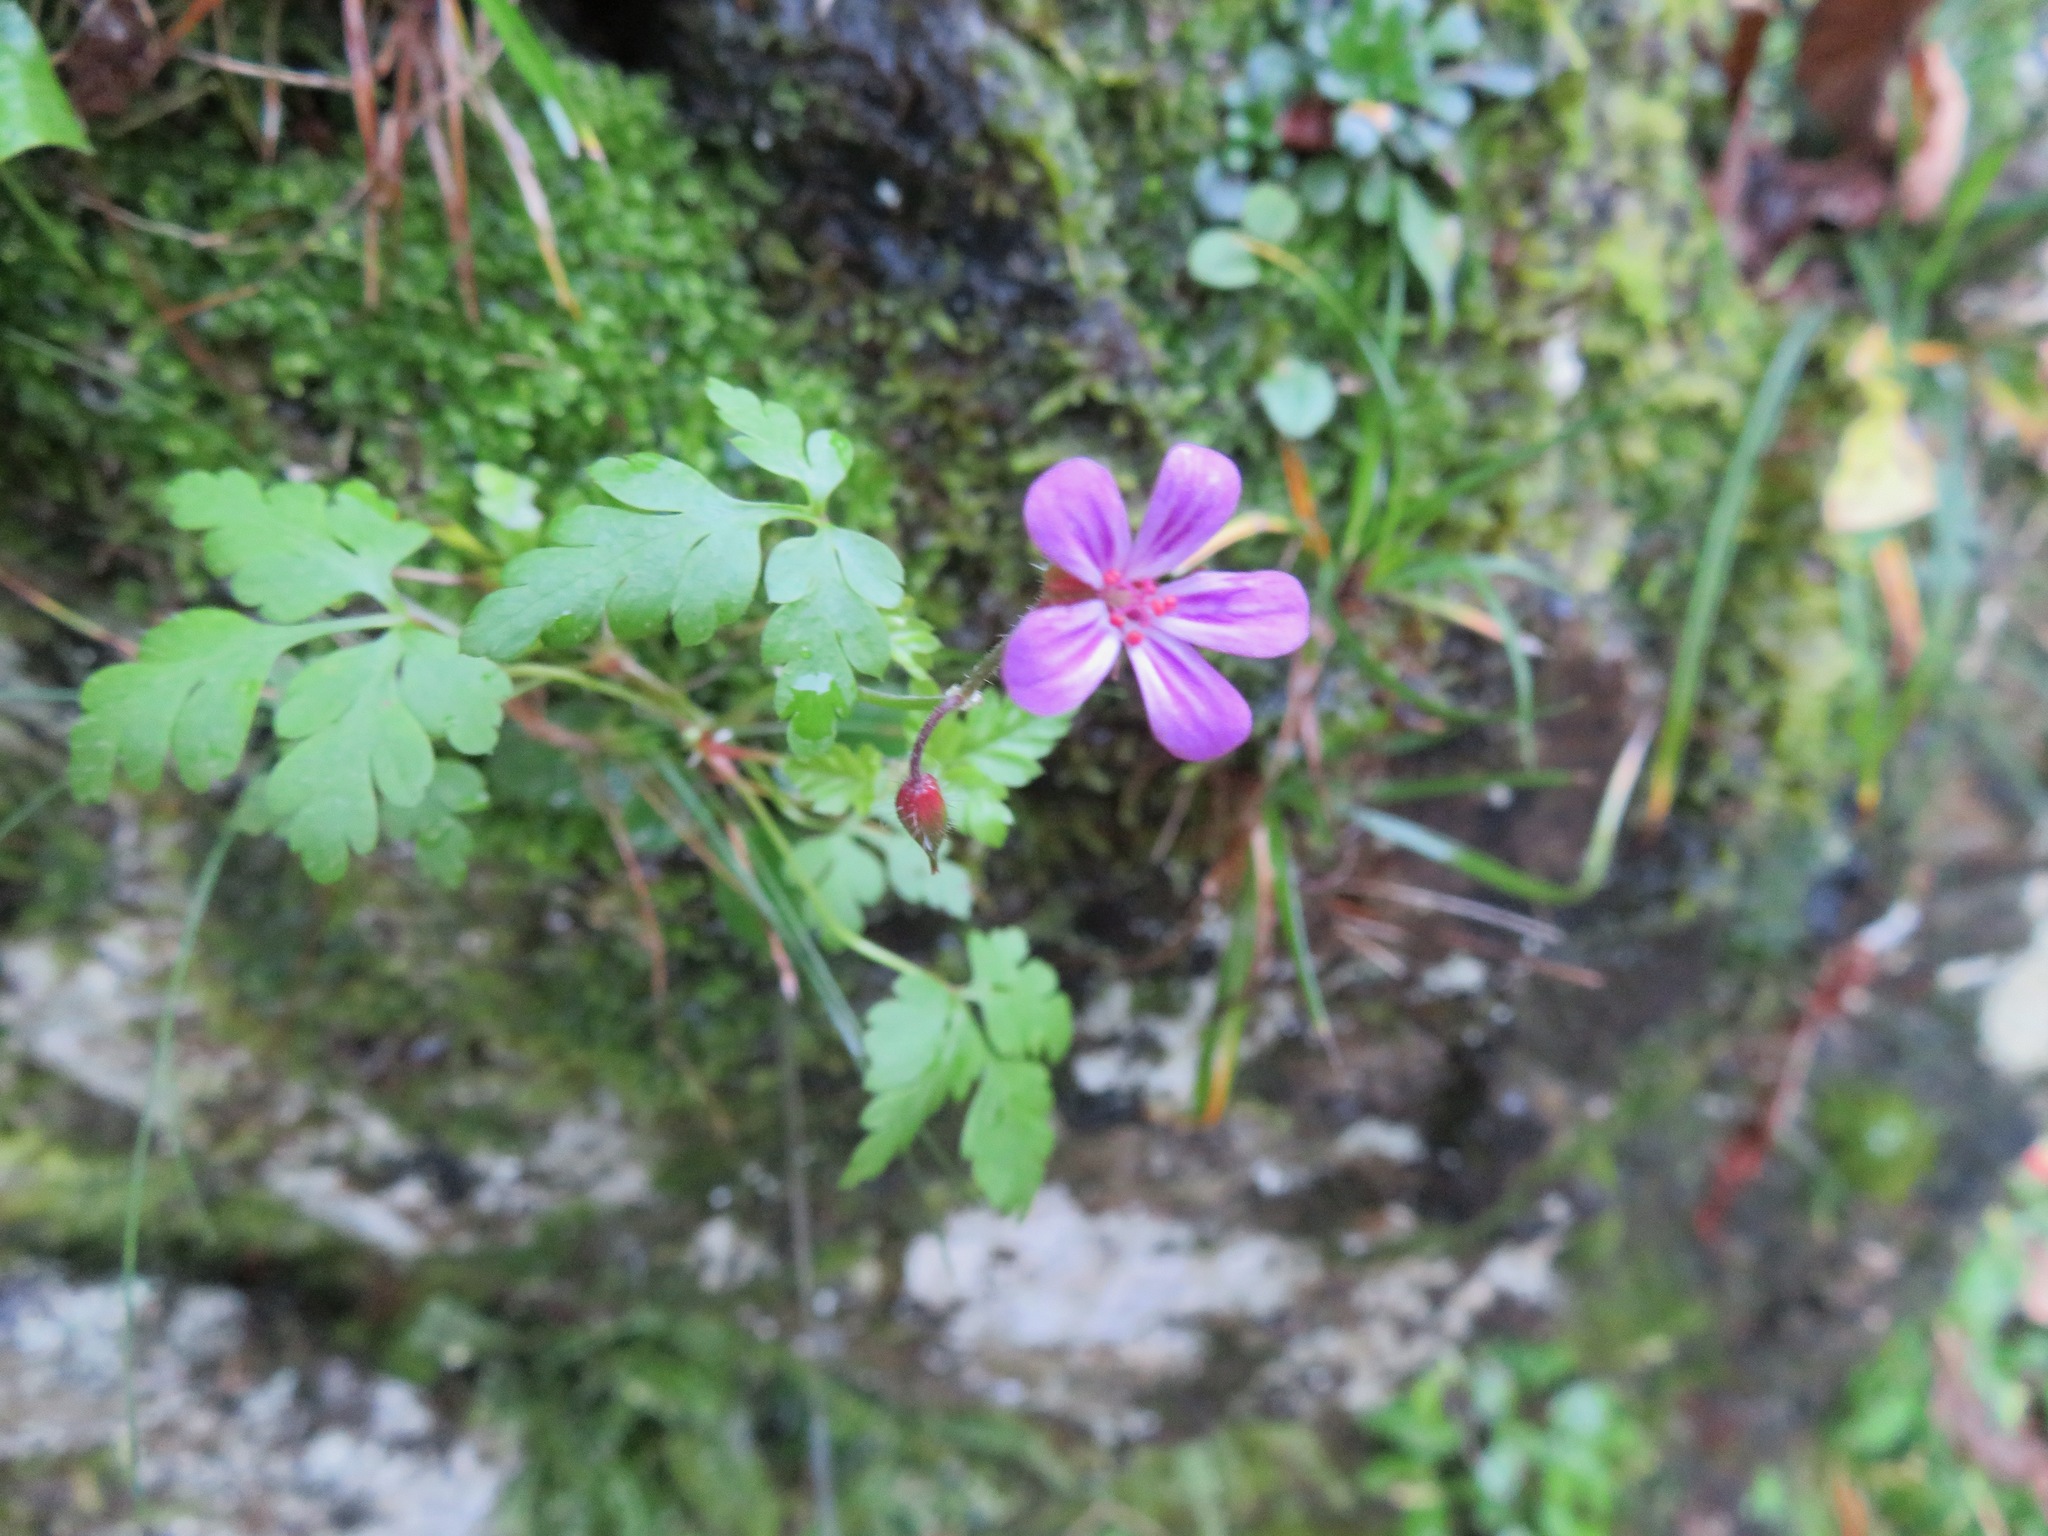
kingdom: Plantae
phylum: Tracheophyta
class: Magnoliopsida
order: Geraniales
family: Geraniaceae
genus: Geranium
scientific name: Geranium robertianum
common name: Herb-robert
